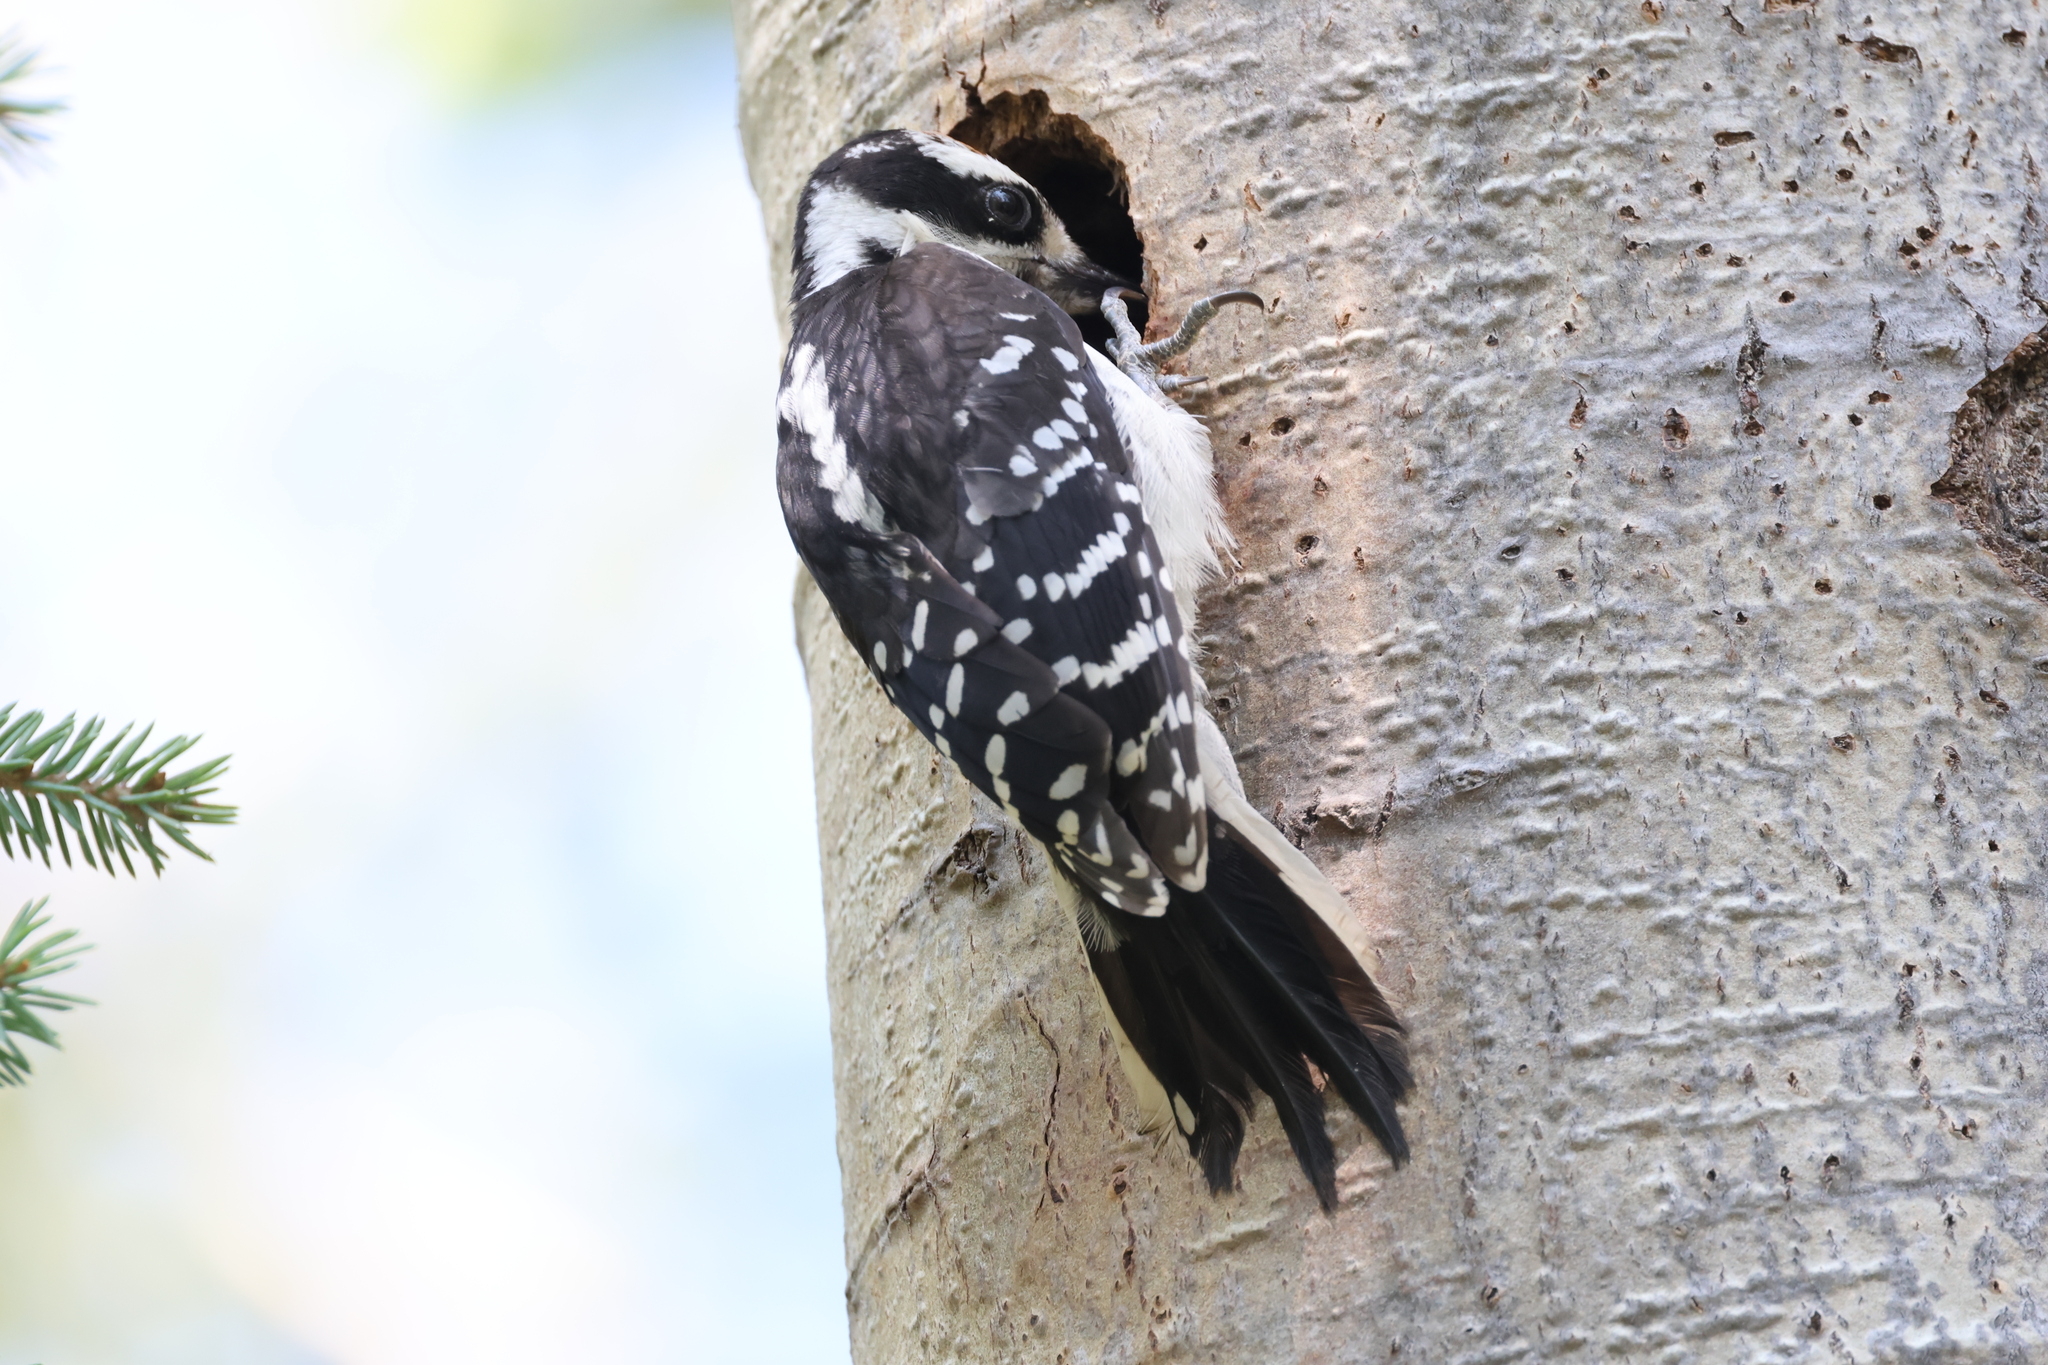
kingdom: Animalia
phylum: Chordata
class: Aves
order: Piciformes
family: Picidae
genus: Leuconotopicus
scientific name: Leuconotopicus villosus
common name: Hairy woodpecker
